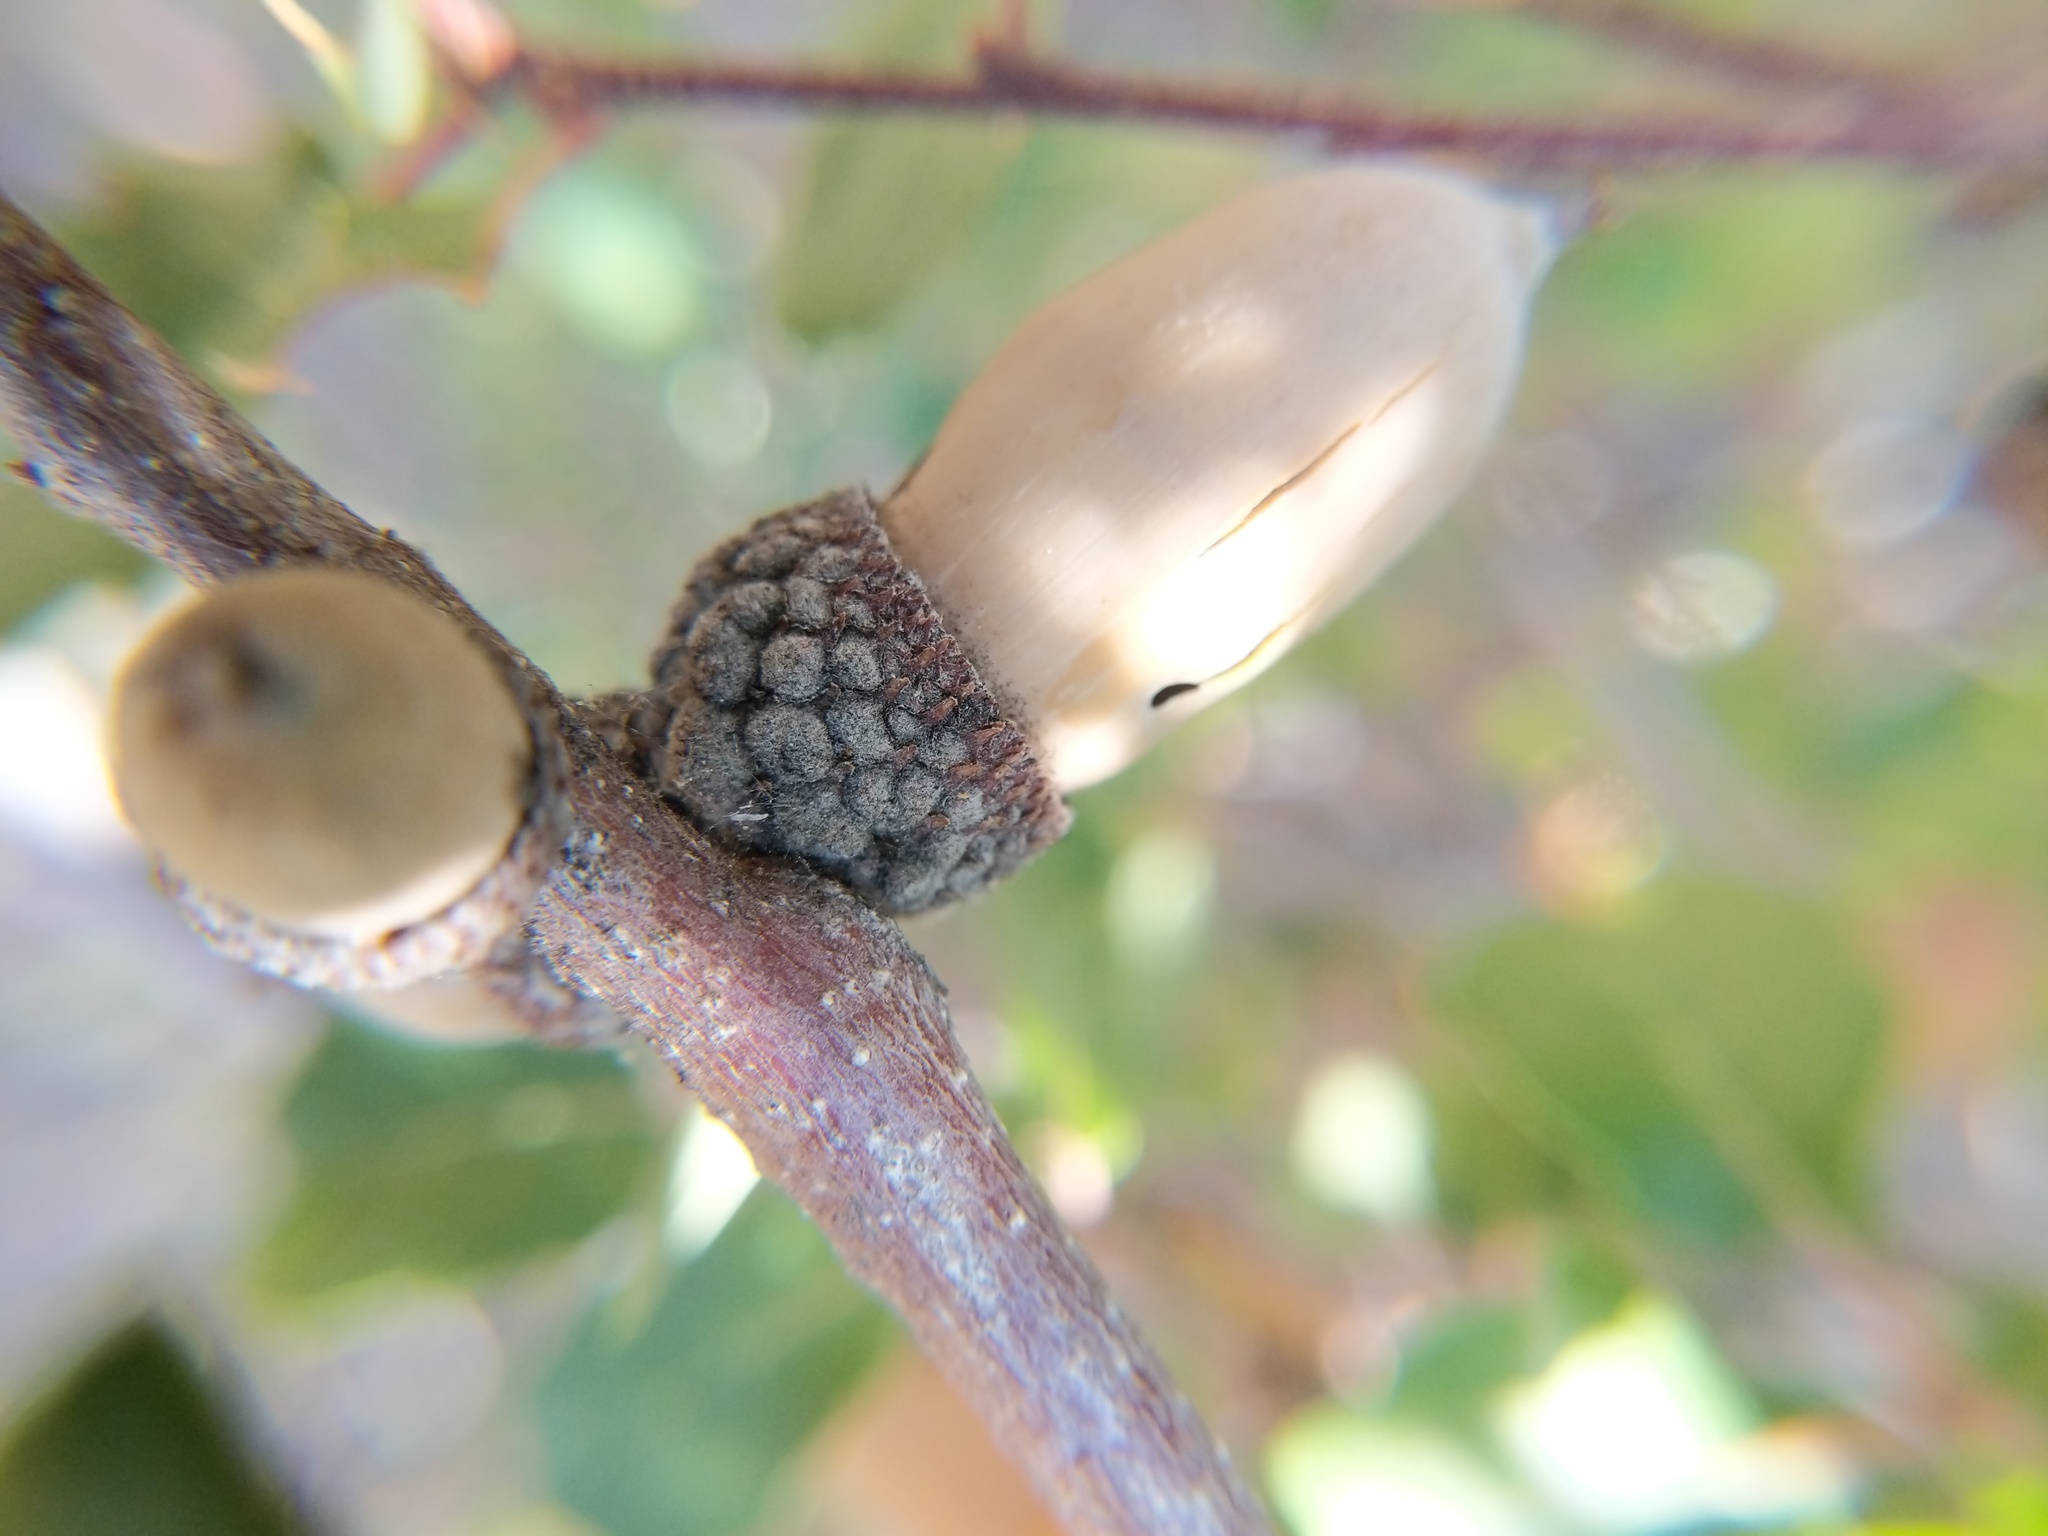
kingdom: Plantae
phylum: Tracheophyta
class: Magnoliopsida
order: Fagales
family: Fagaceae
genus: Quercus
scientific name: Quercus berberidifolia
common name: California scrub oak
